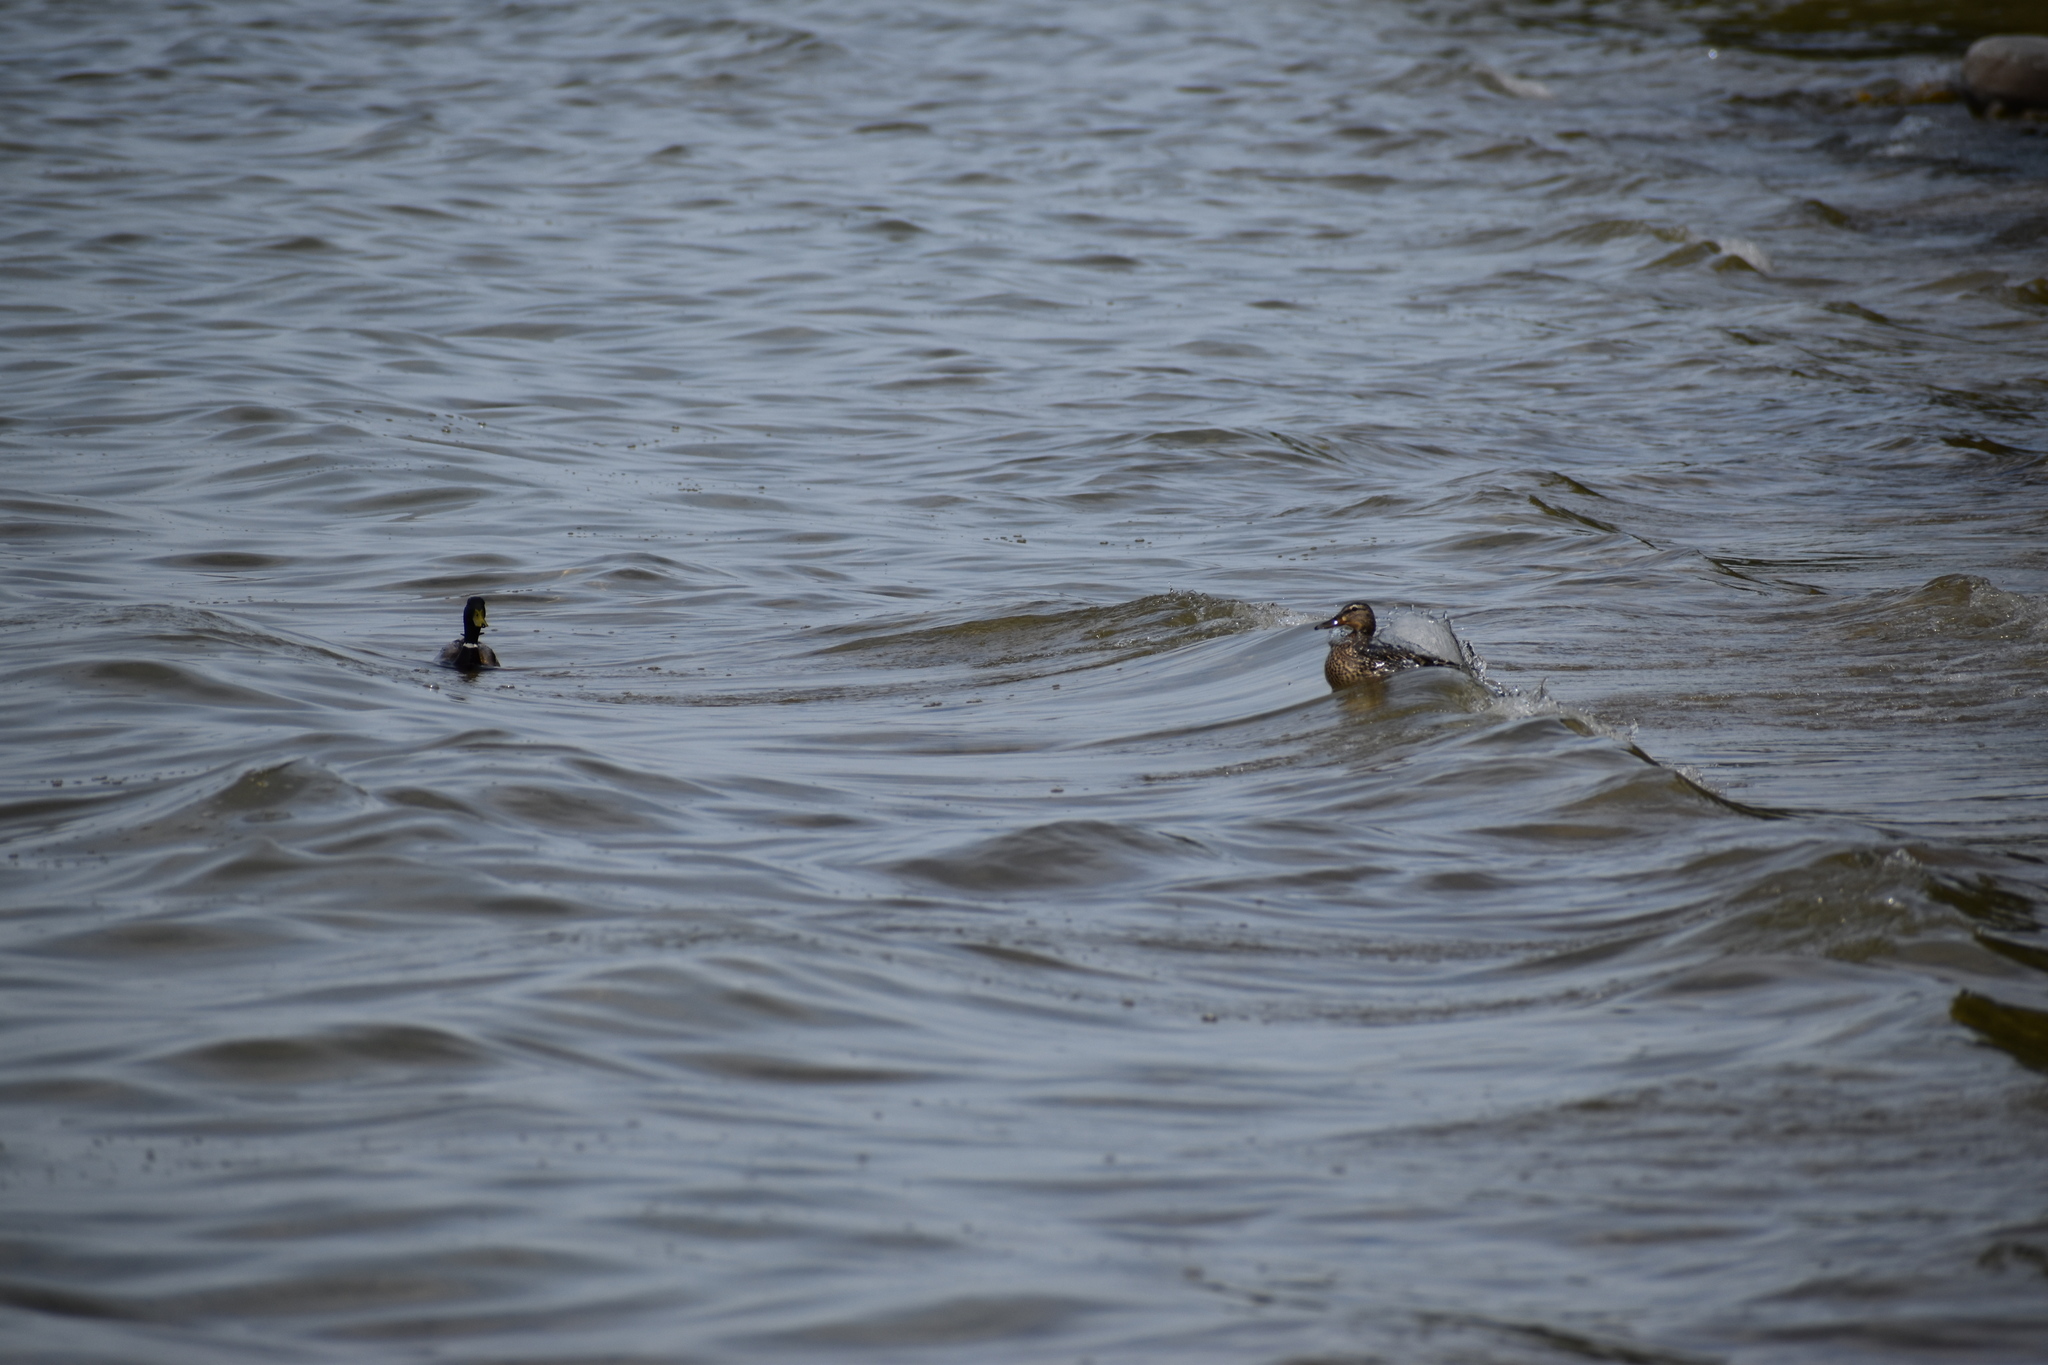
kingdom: Animalia
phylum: Chordata
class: Aves
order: Anseriformes
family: Anatidae
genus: Anas
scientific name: Anas platyrhynchos
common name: Mallard
